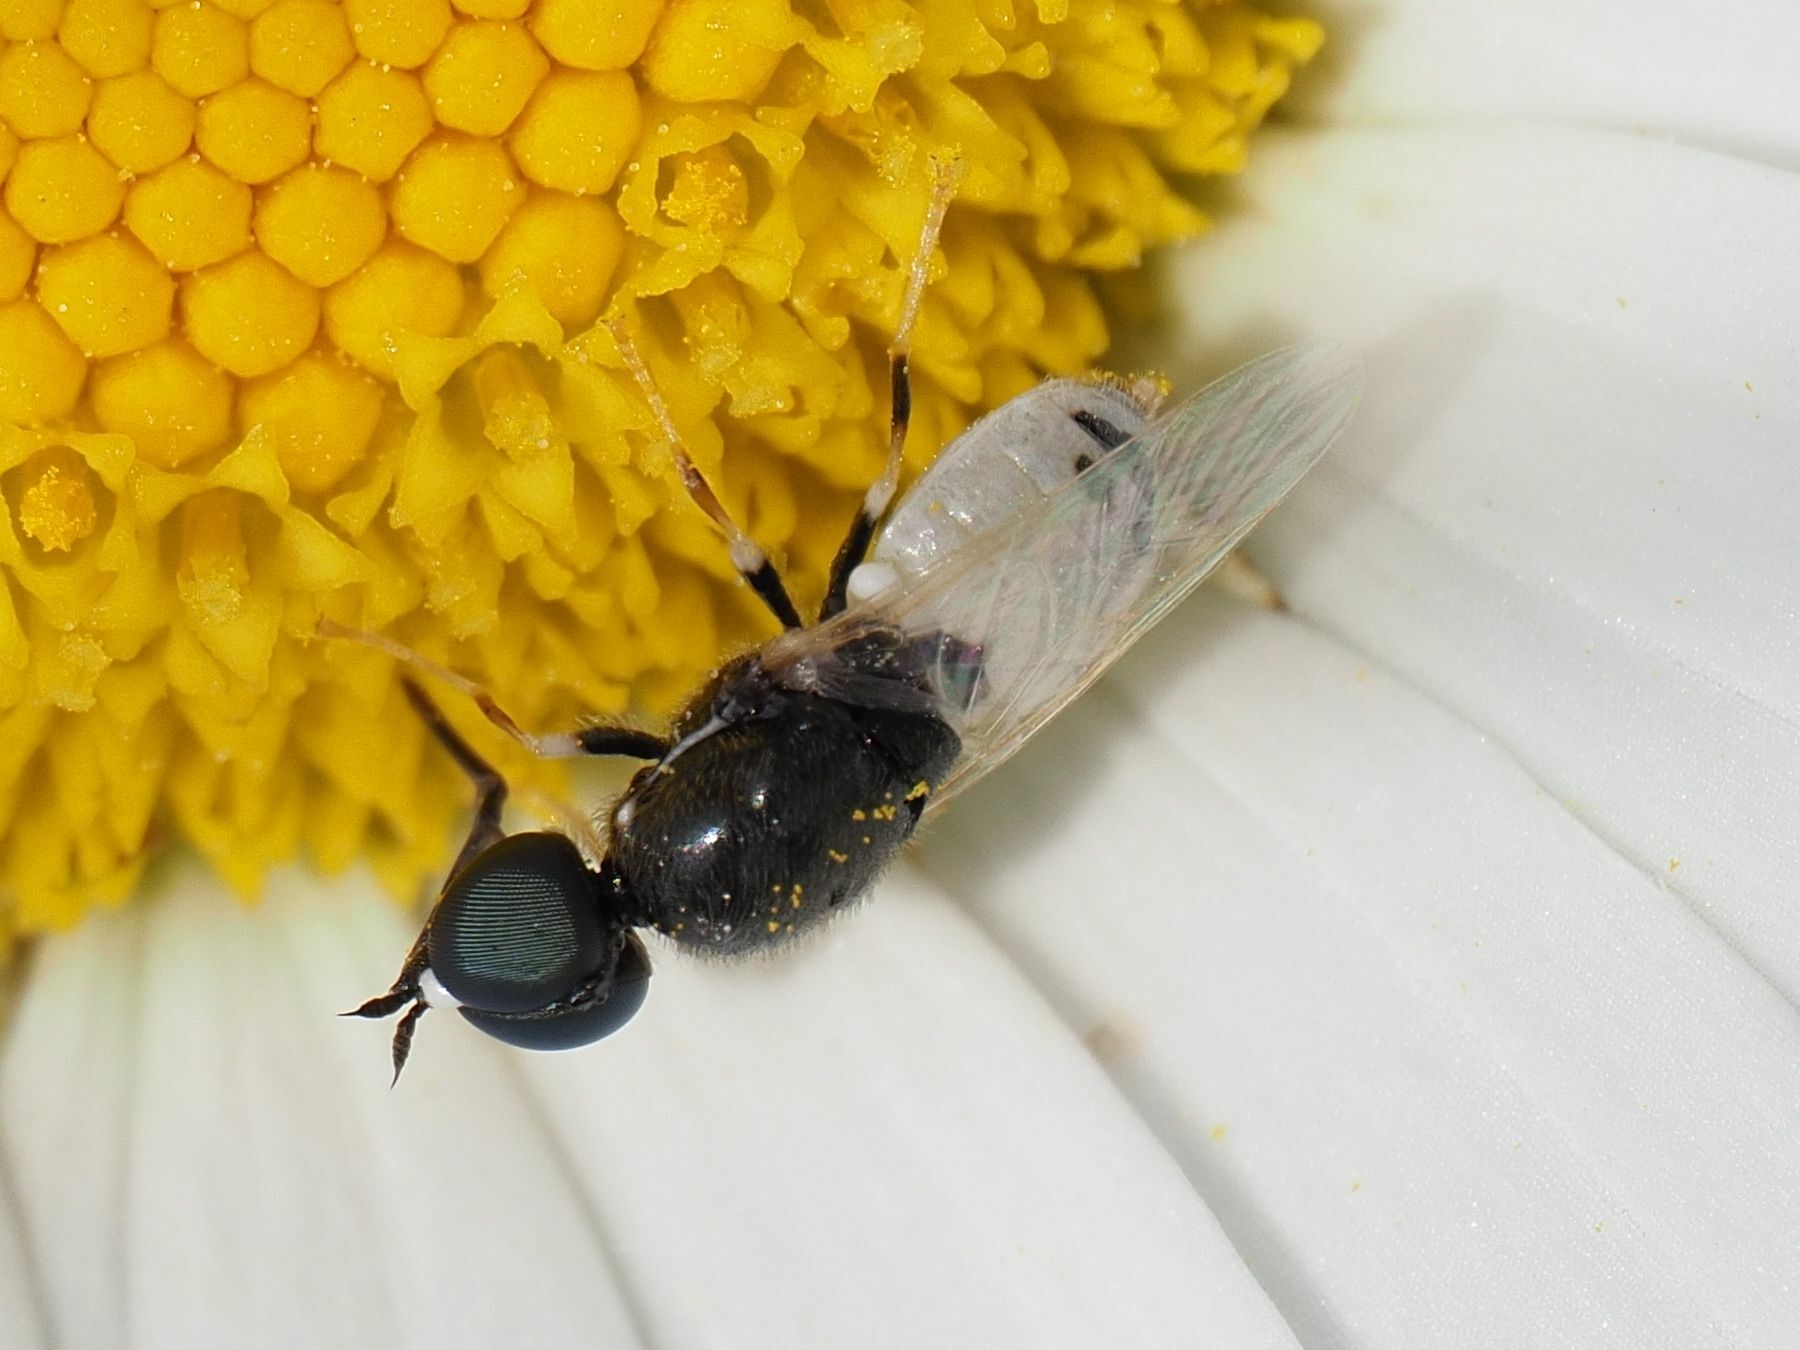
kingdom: Animalia
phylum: Arthropoda
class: Insecta
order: Diptera
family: Stratiomyidae
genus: Nemotelus
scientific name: Nemotelus pantherina
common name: Fen snout
